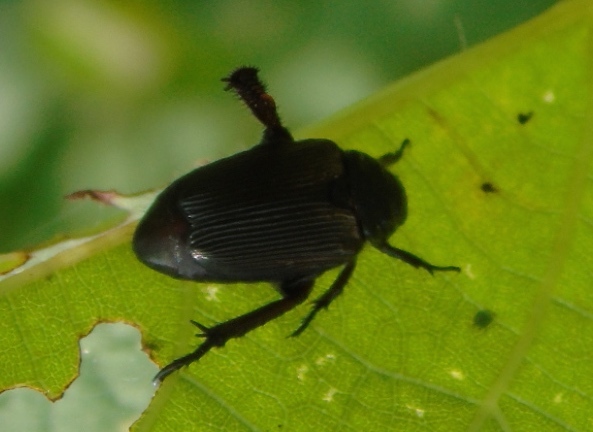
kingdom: Animalia
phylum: Arthropoda
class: Insecta
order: Coleoptera
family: Scarabaeidae
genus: Strigoderma
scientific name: Strigoderma
